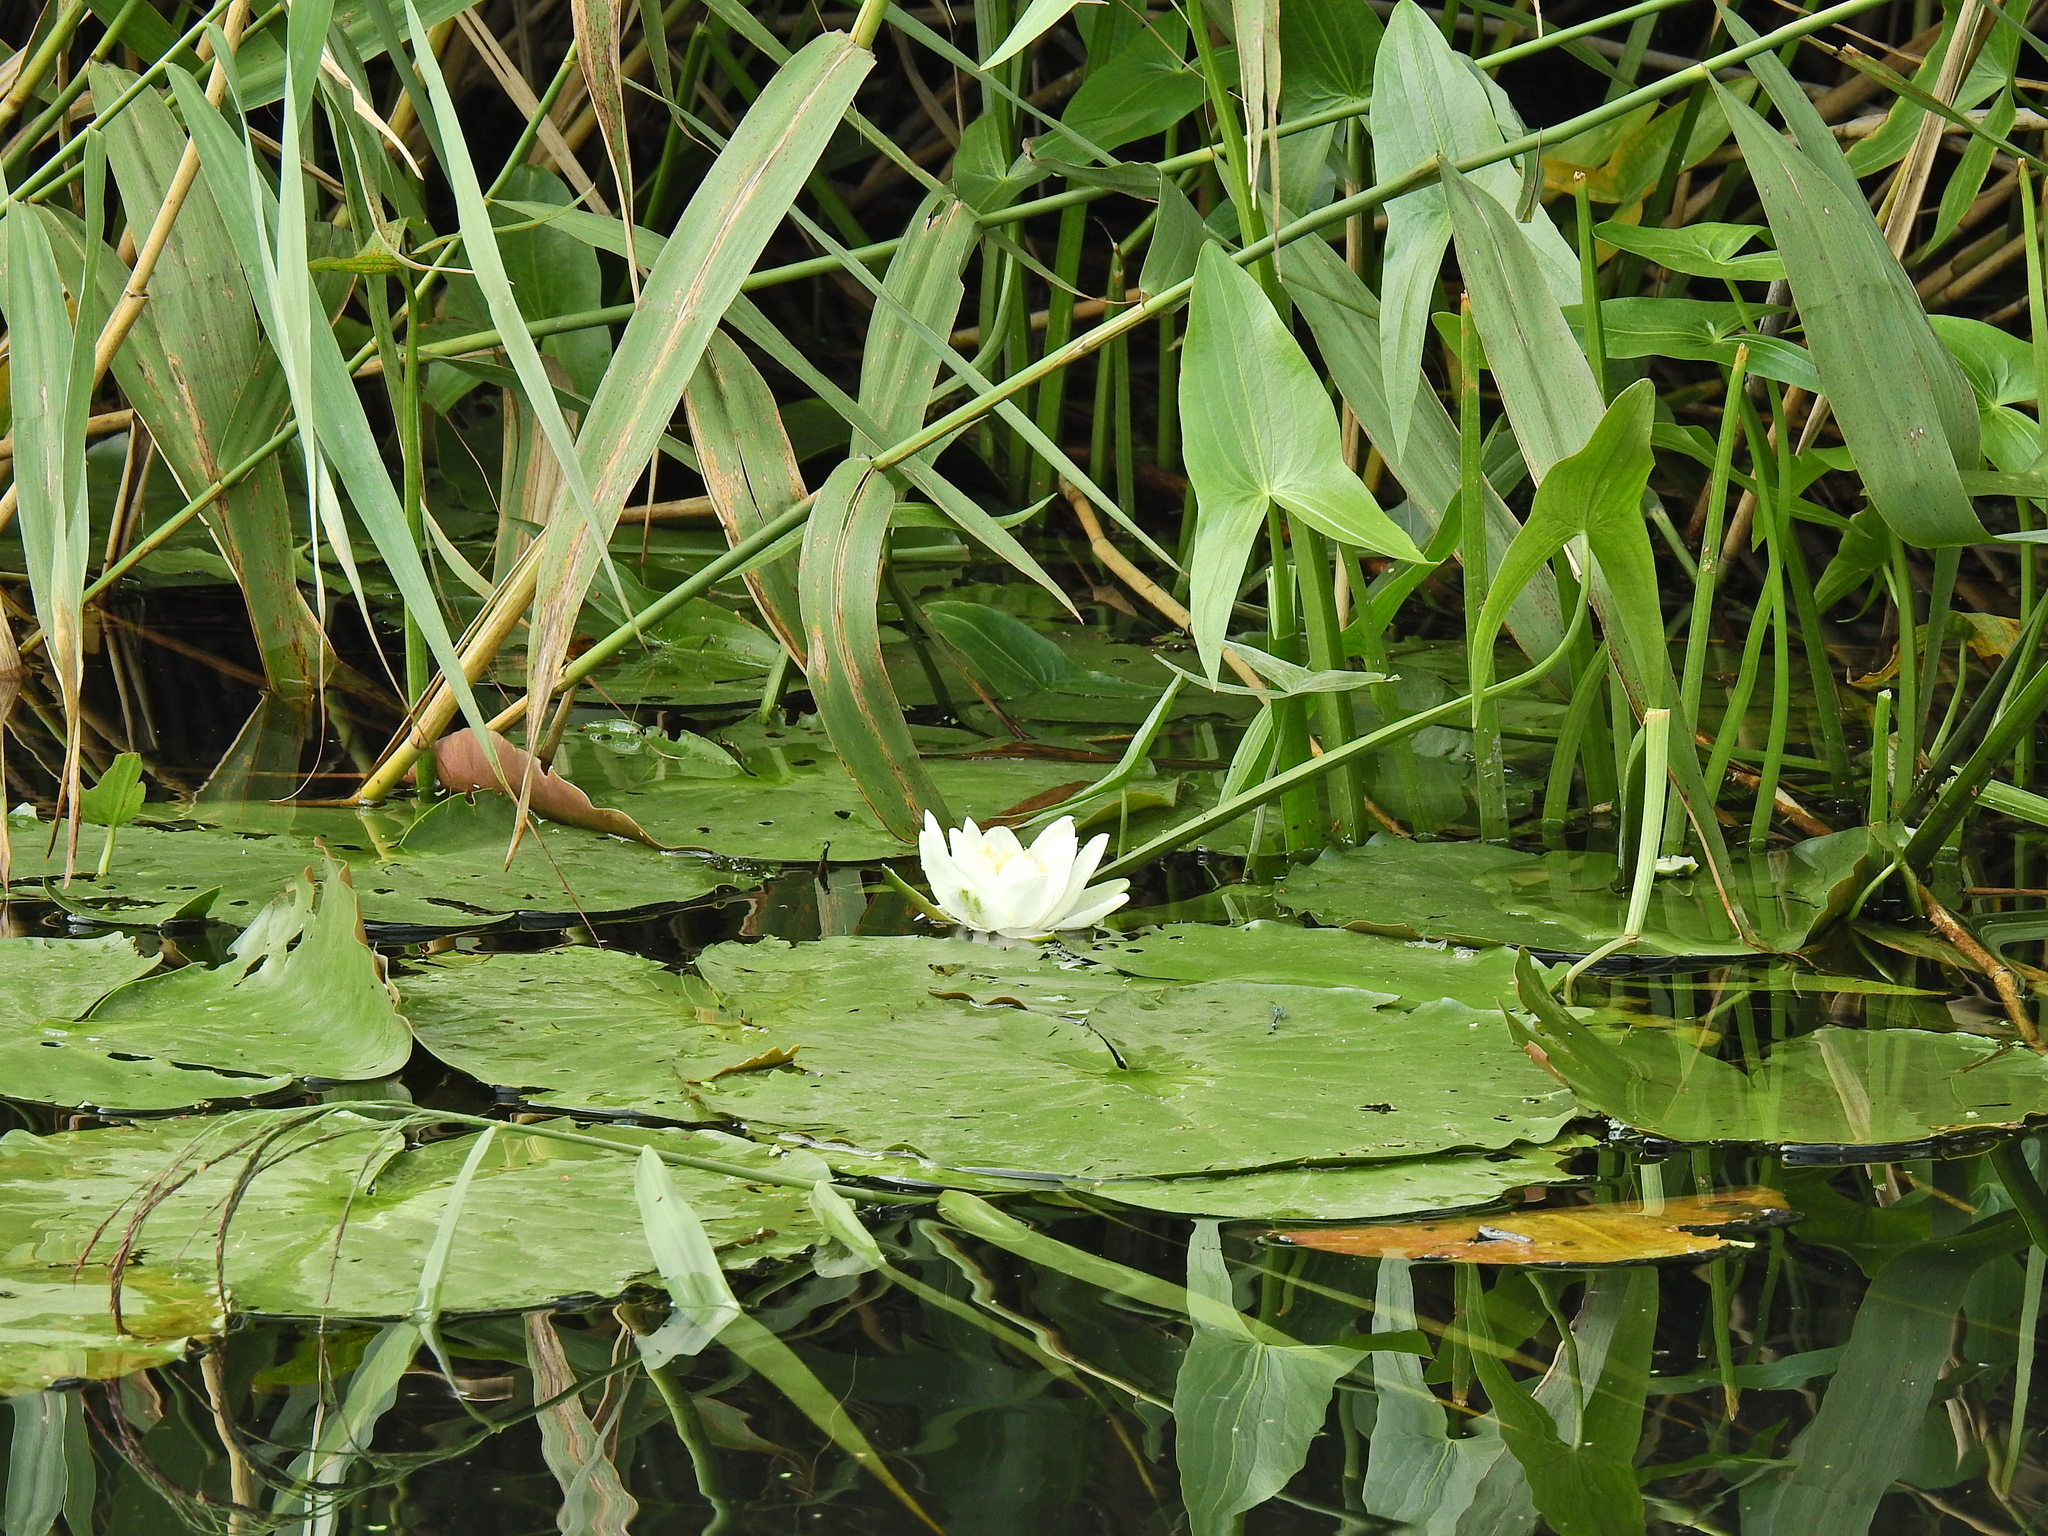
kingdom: Plantae
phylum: Tracheophyta
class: Magnoliopsida
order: Nymphaeales
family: Nymphaeaceae
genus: Nymphaea
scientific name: Nymphaea alba
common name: White water-lily
